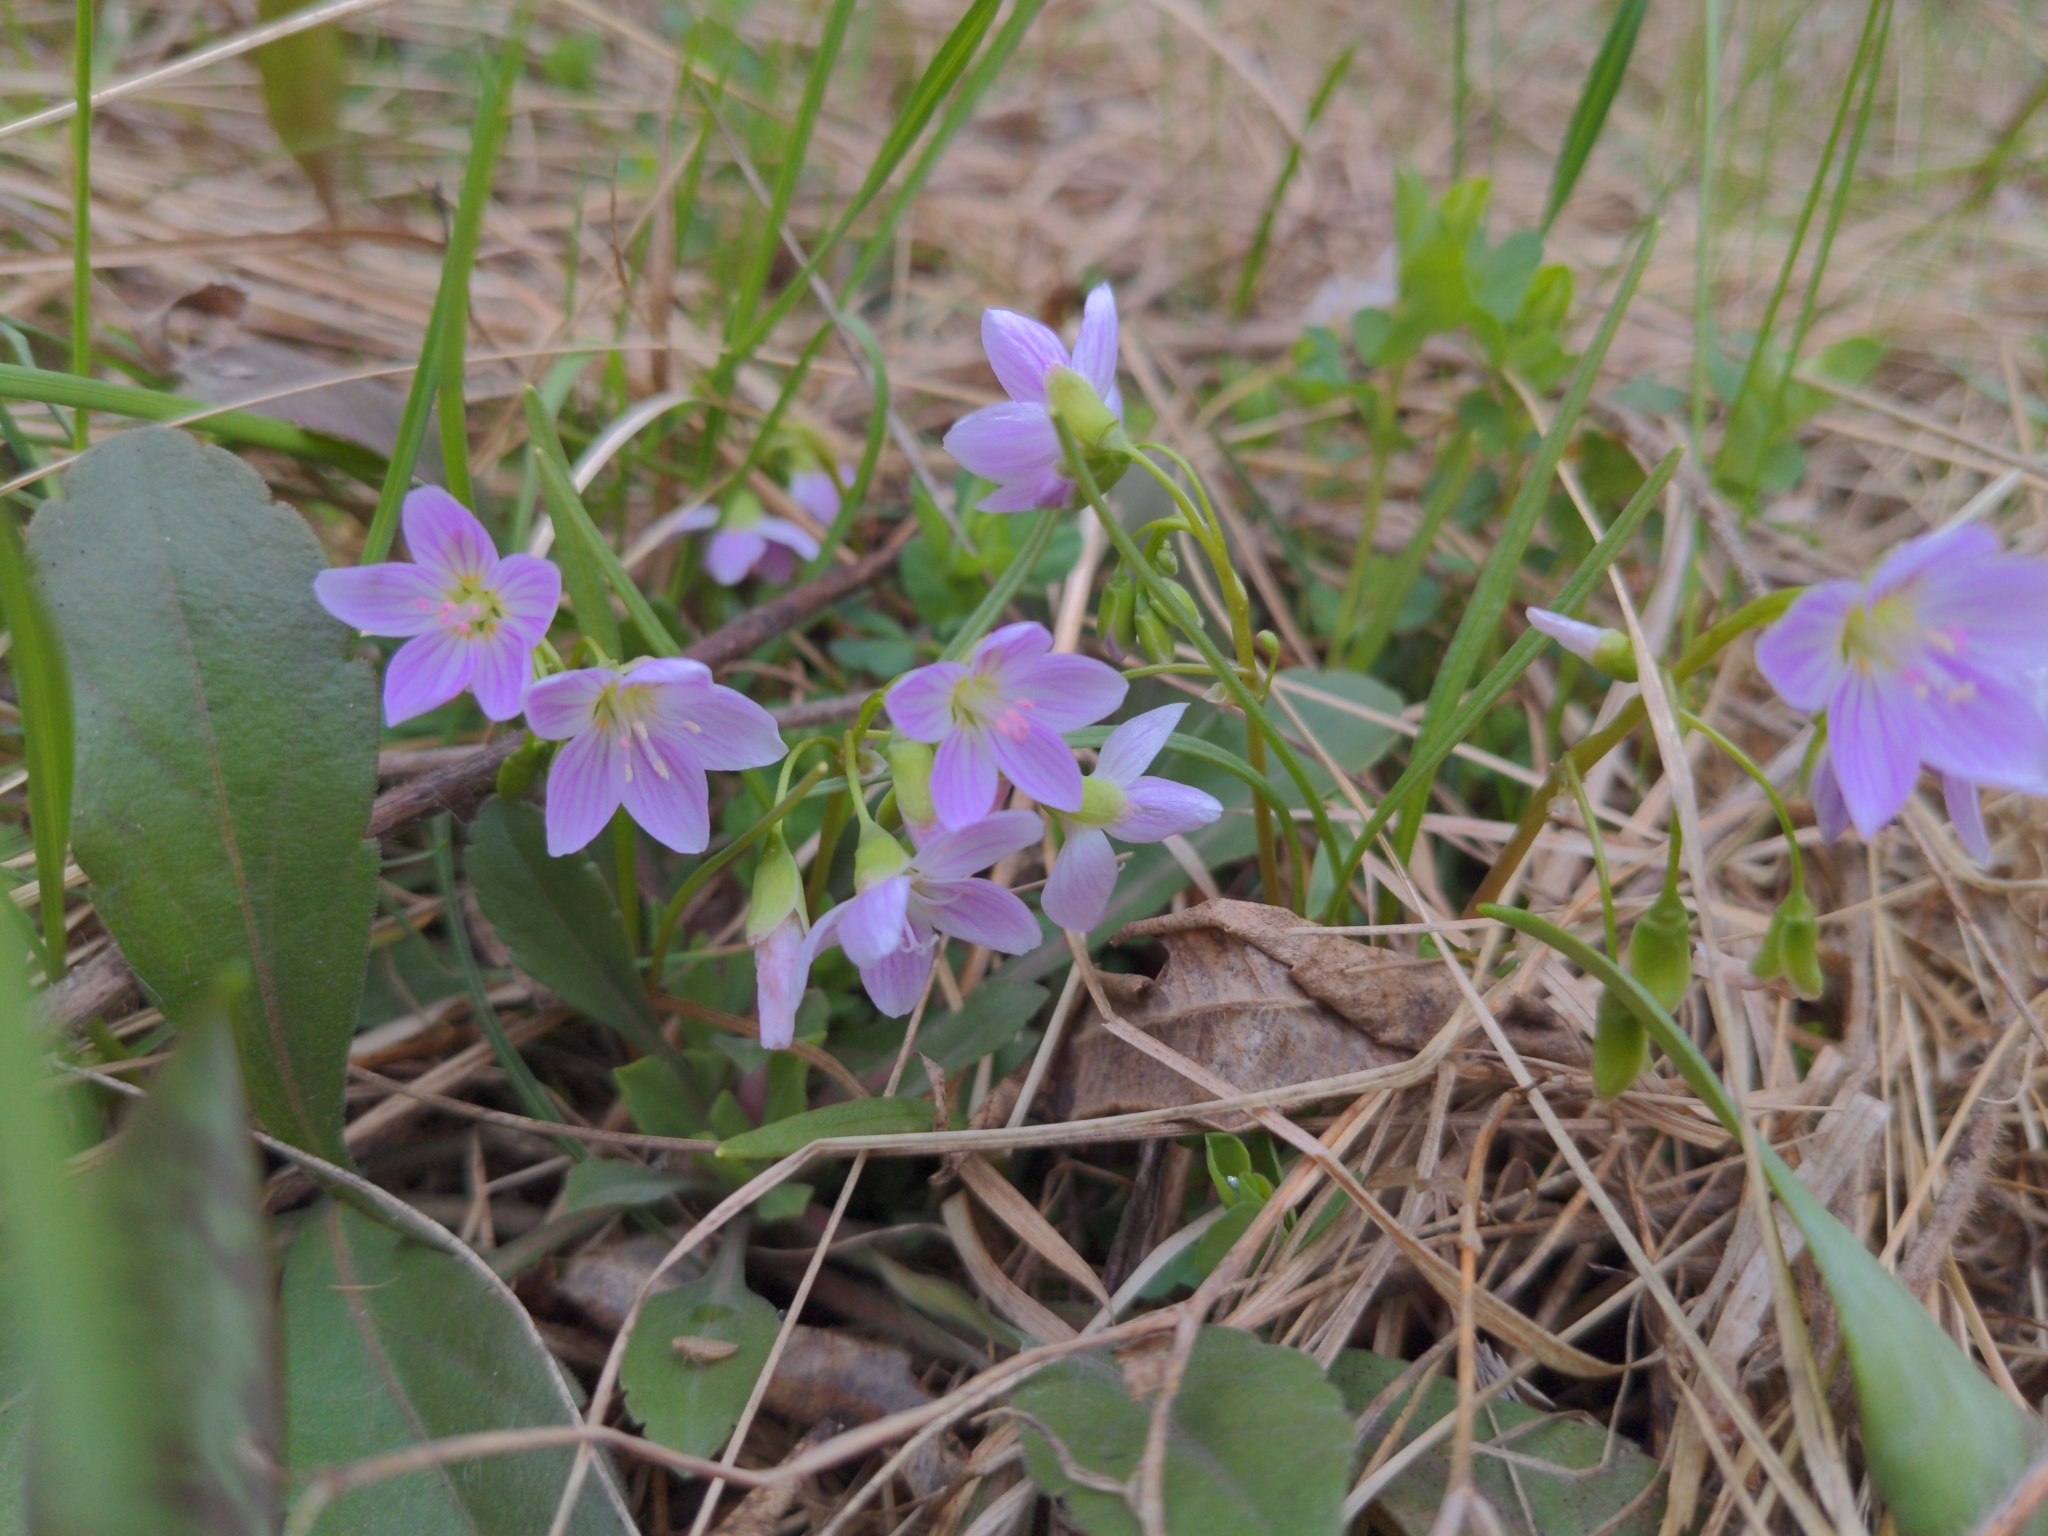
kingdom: Plantae
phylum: Tracheophyta
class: Magnoliopsida
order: Caryophyllales
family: Montiaceae
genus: Claytonia
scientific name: Claytonia virginica
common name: Virginia springbeauty
